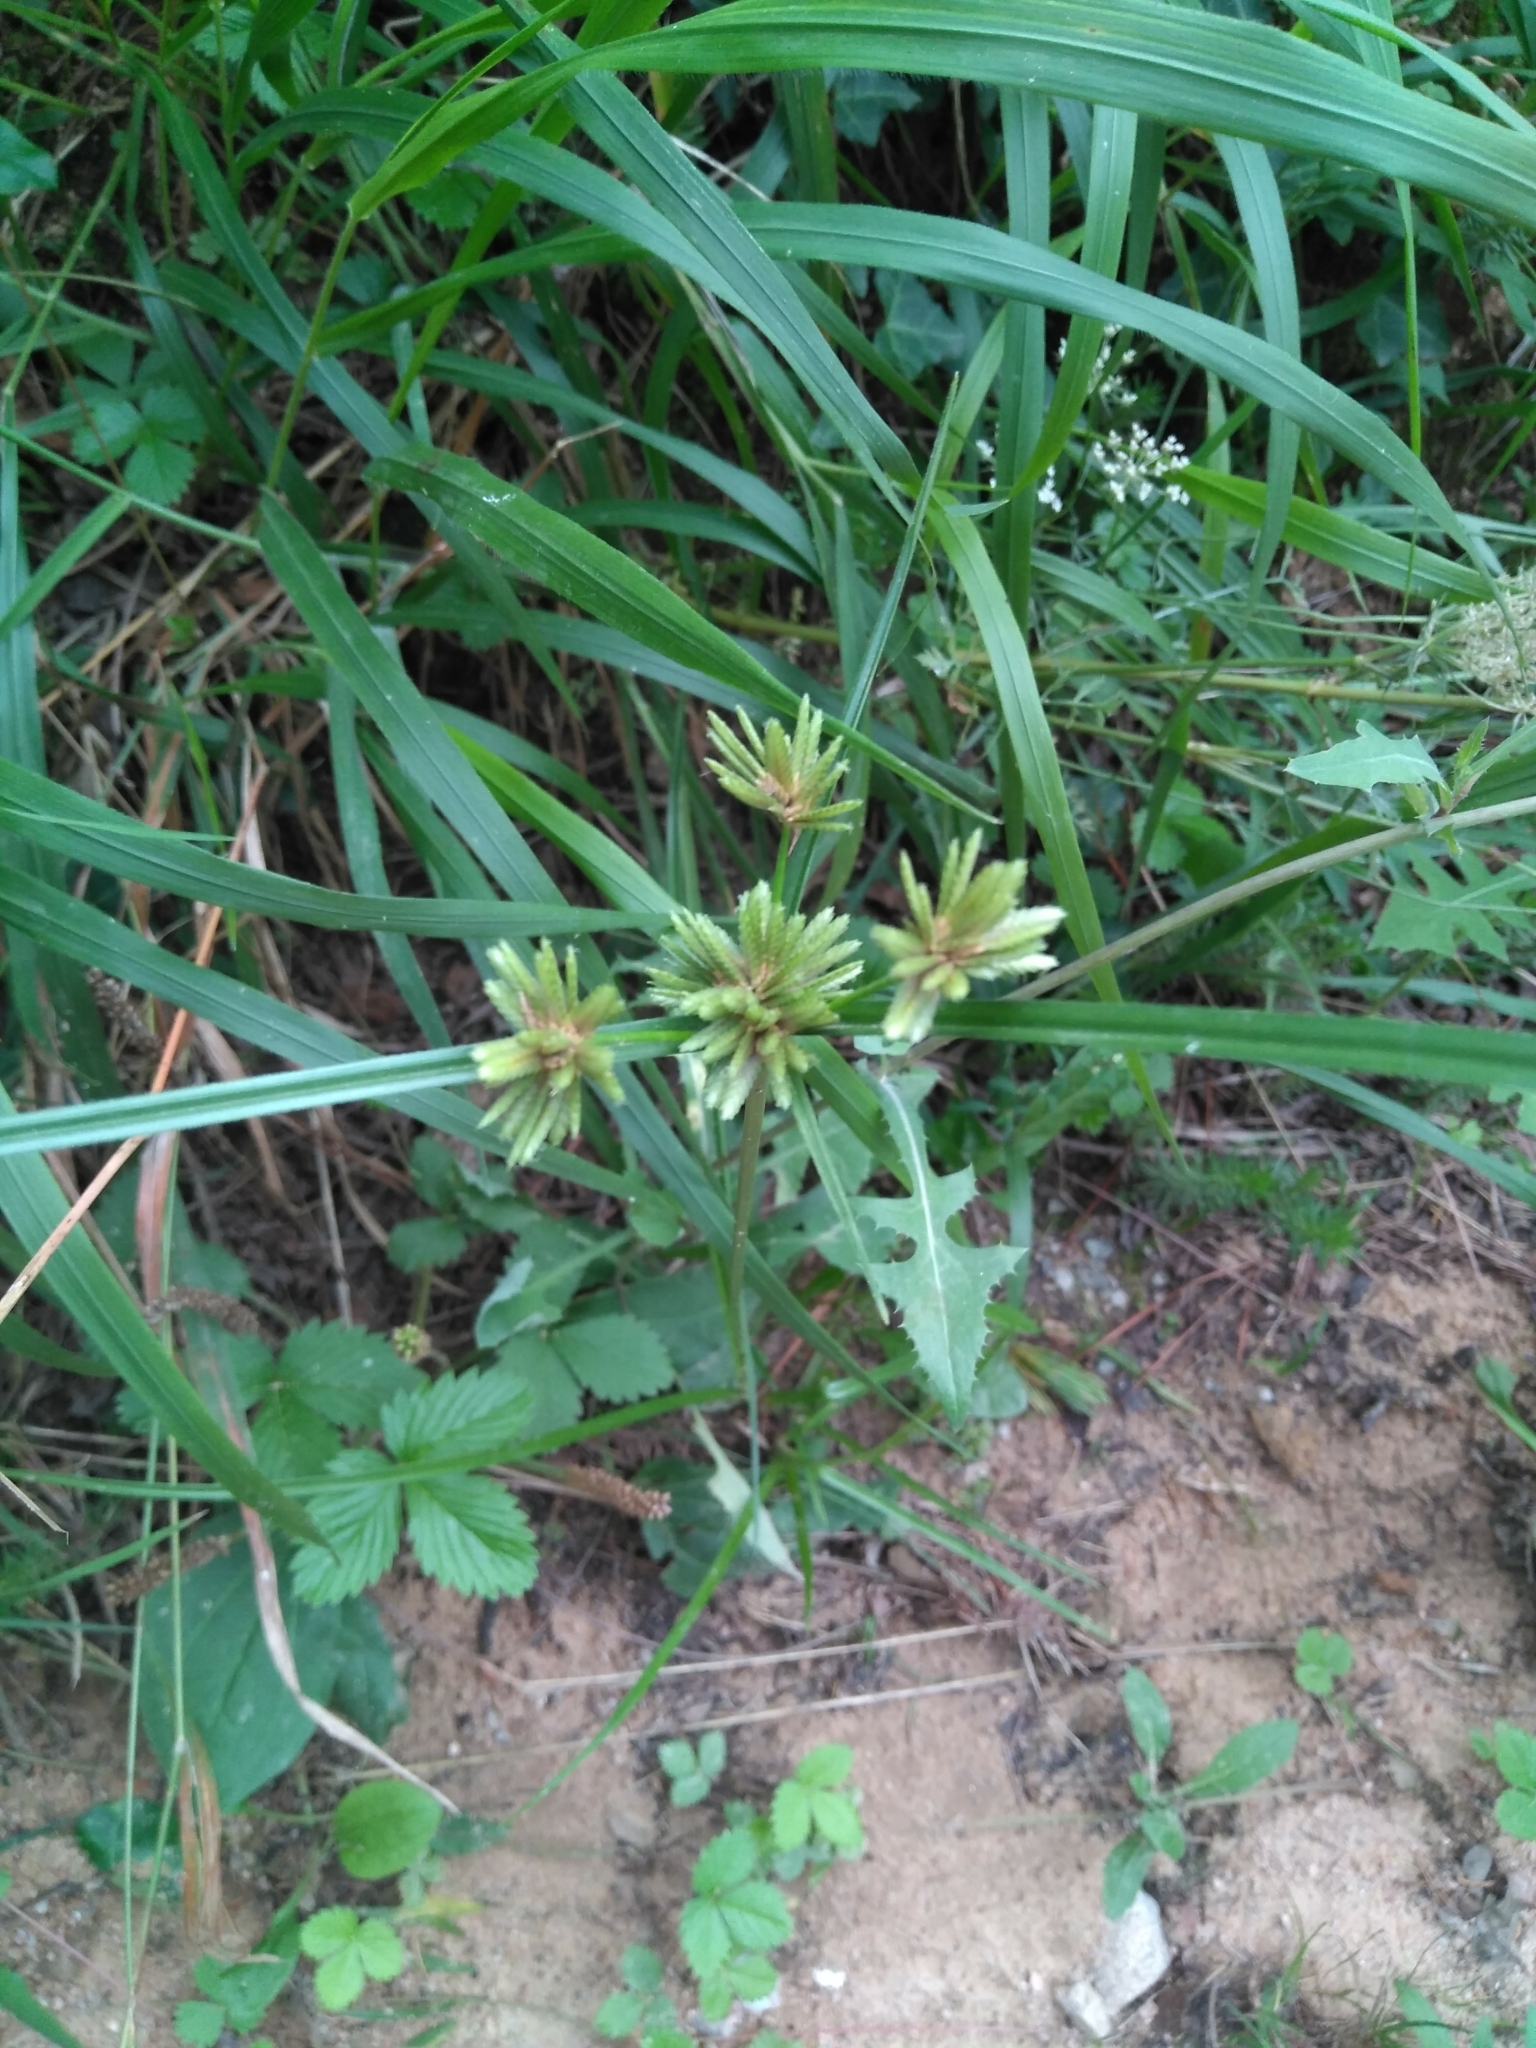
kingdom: Plantae
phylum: Tracheophyta
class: Liliopsida
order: Poales
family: Cyperaceae
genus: Cyperus
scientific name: Cyperus eragrostis
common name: Tall flatsedge
